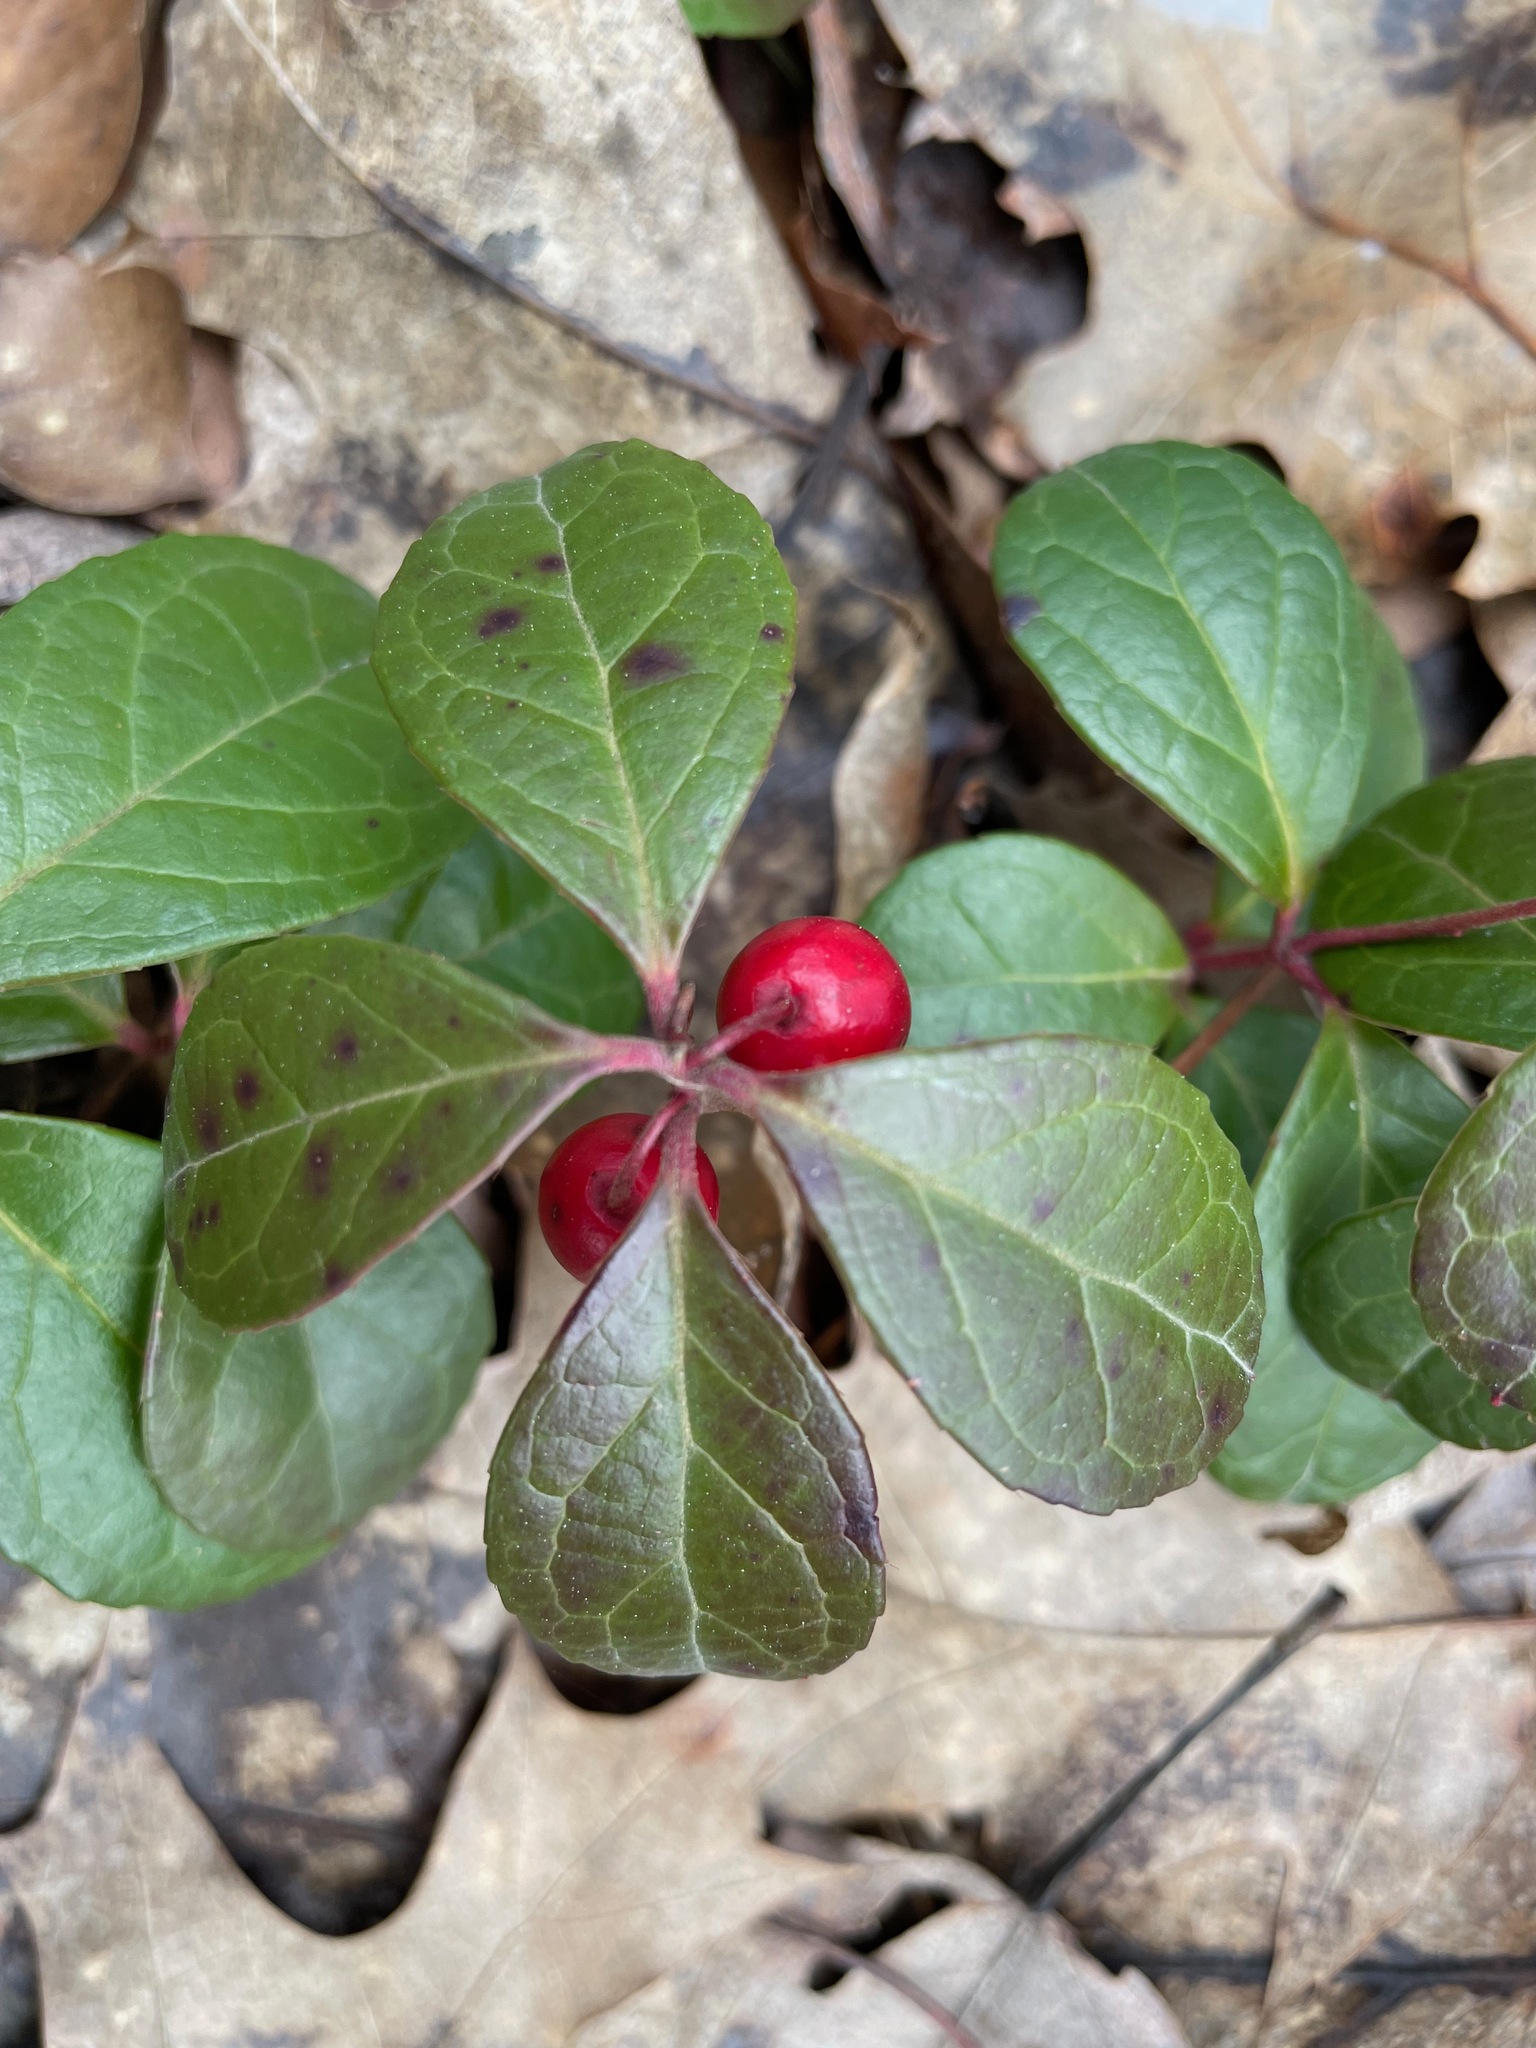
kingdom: Plantae
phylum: Tracheophyta
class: Magnoliopsida
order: Ericales
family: Ericaceae
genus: Gaultheria
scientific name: Gaultheria procumbens
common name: Checkerberry
